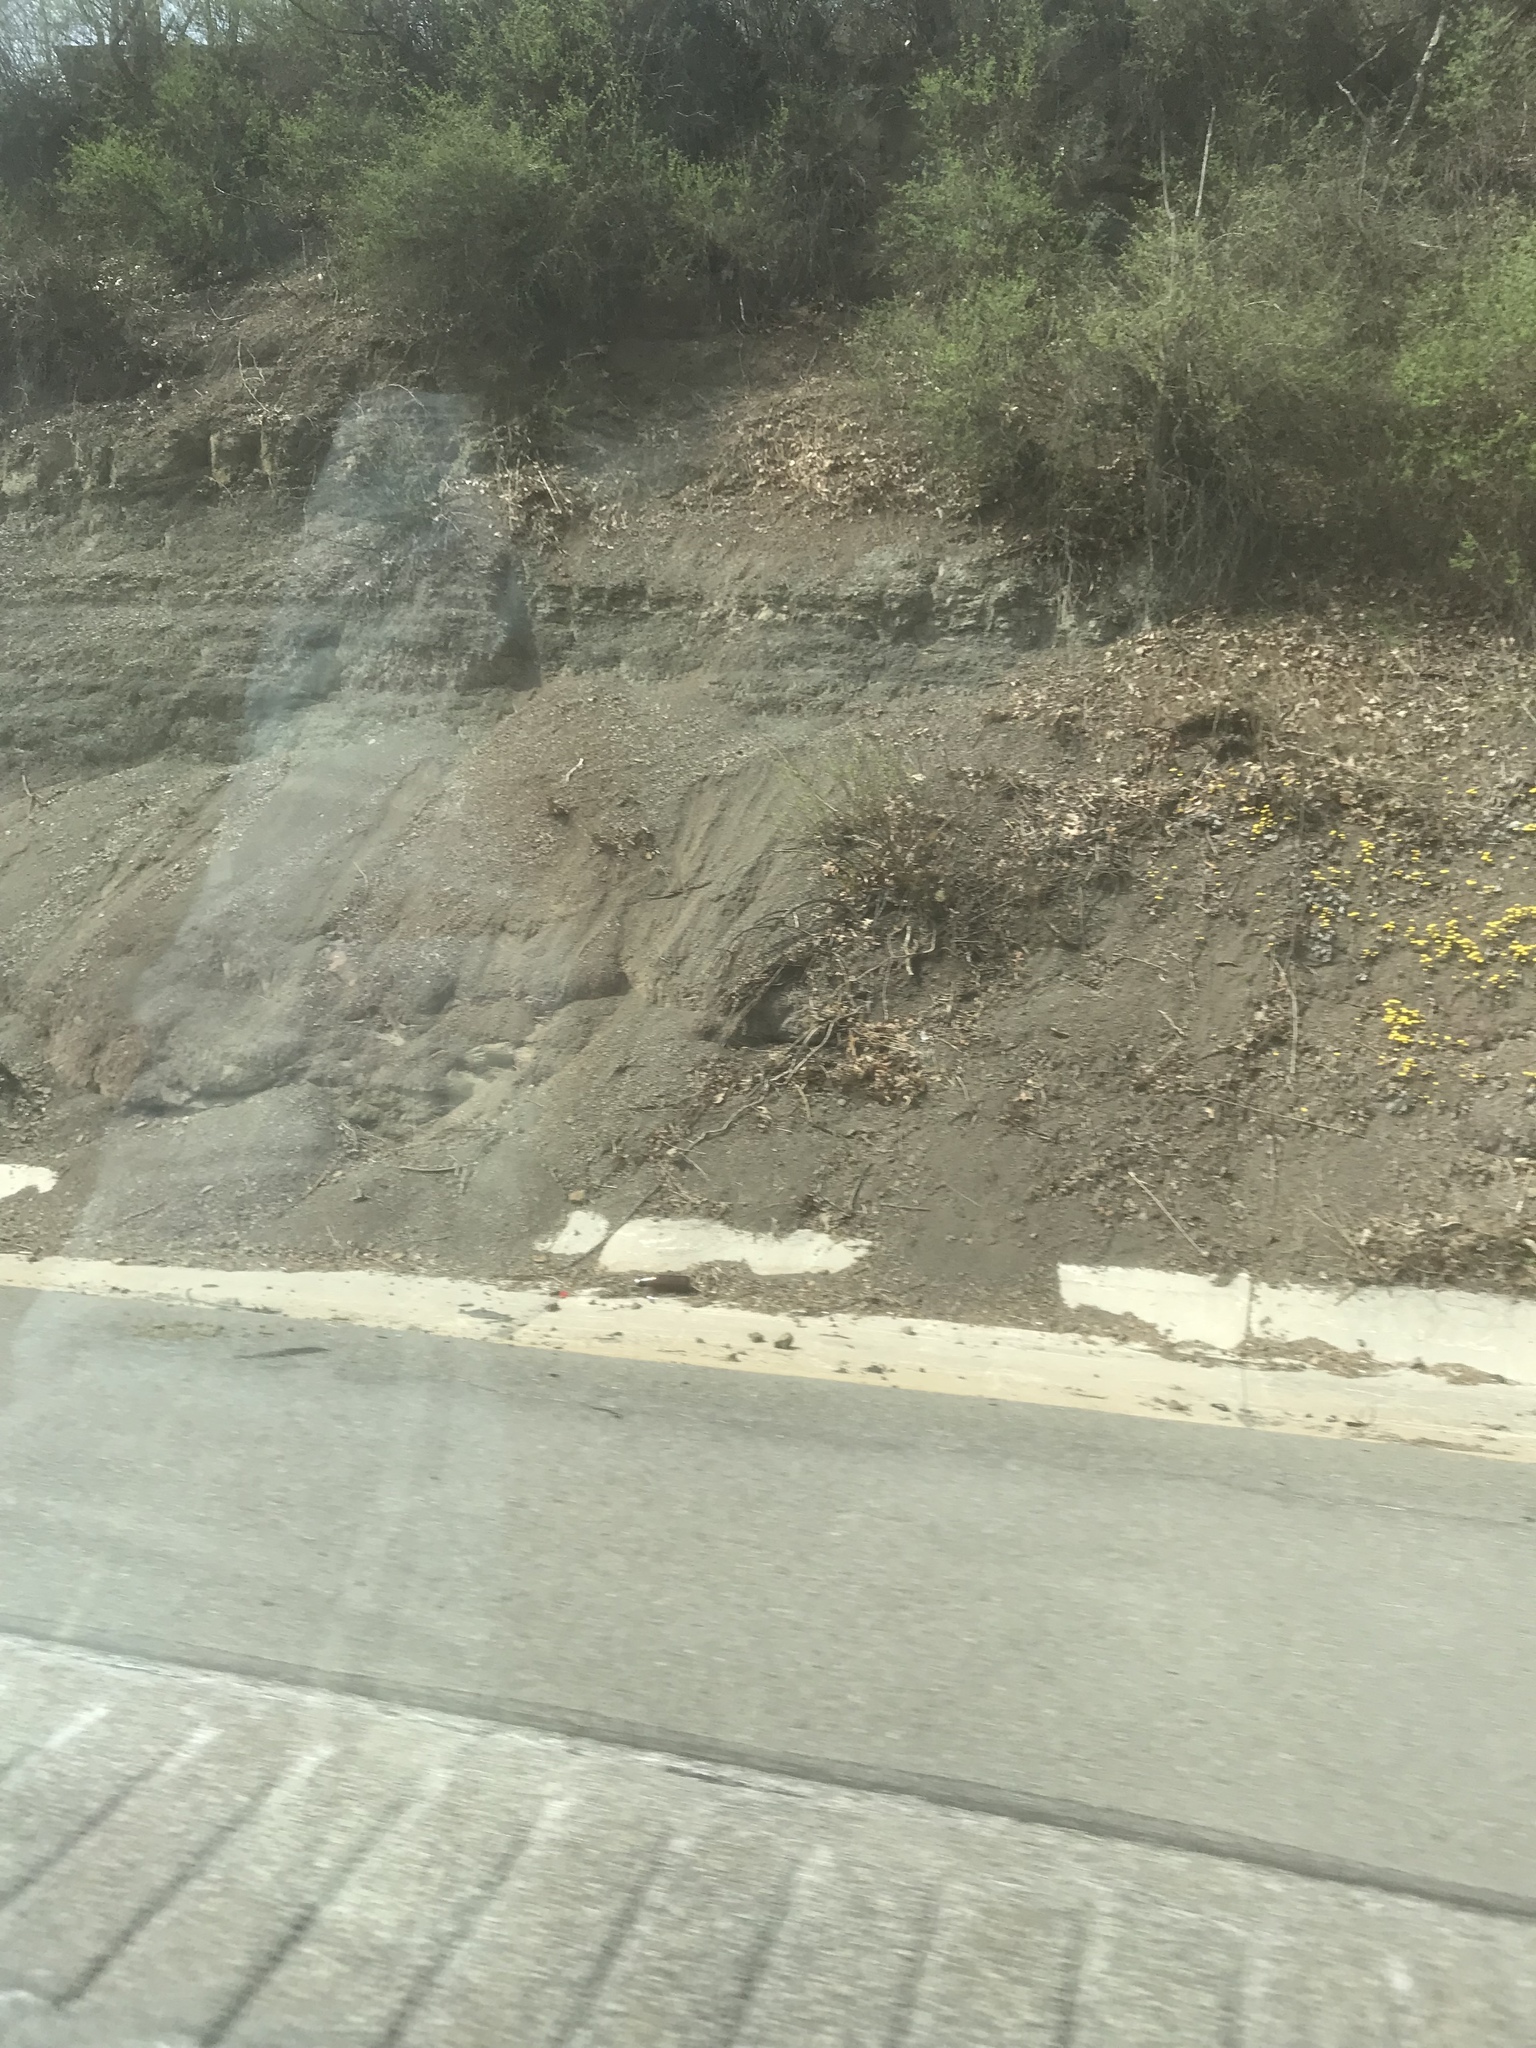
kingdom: Plantae
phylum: Tracheophyta
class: Magnoliopsida
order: Asterales
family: Asteraceae
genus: Tussilago
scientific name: Tussilago farfara
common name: Coltsfoot
